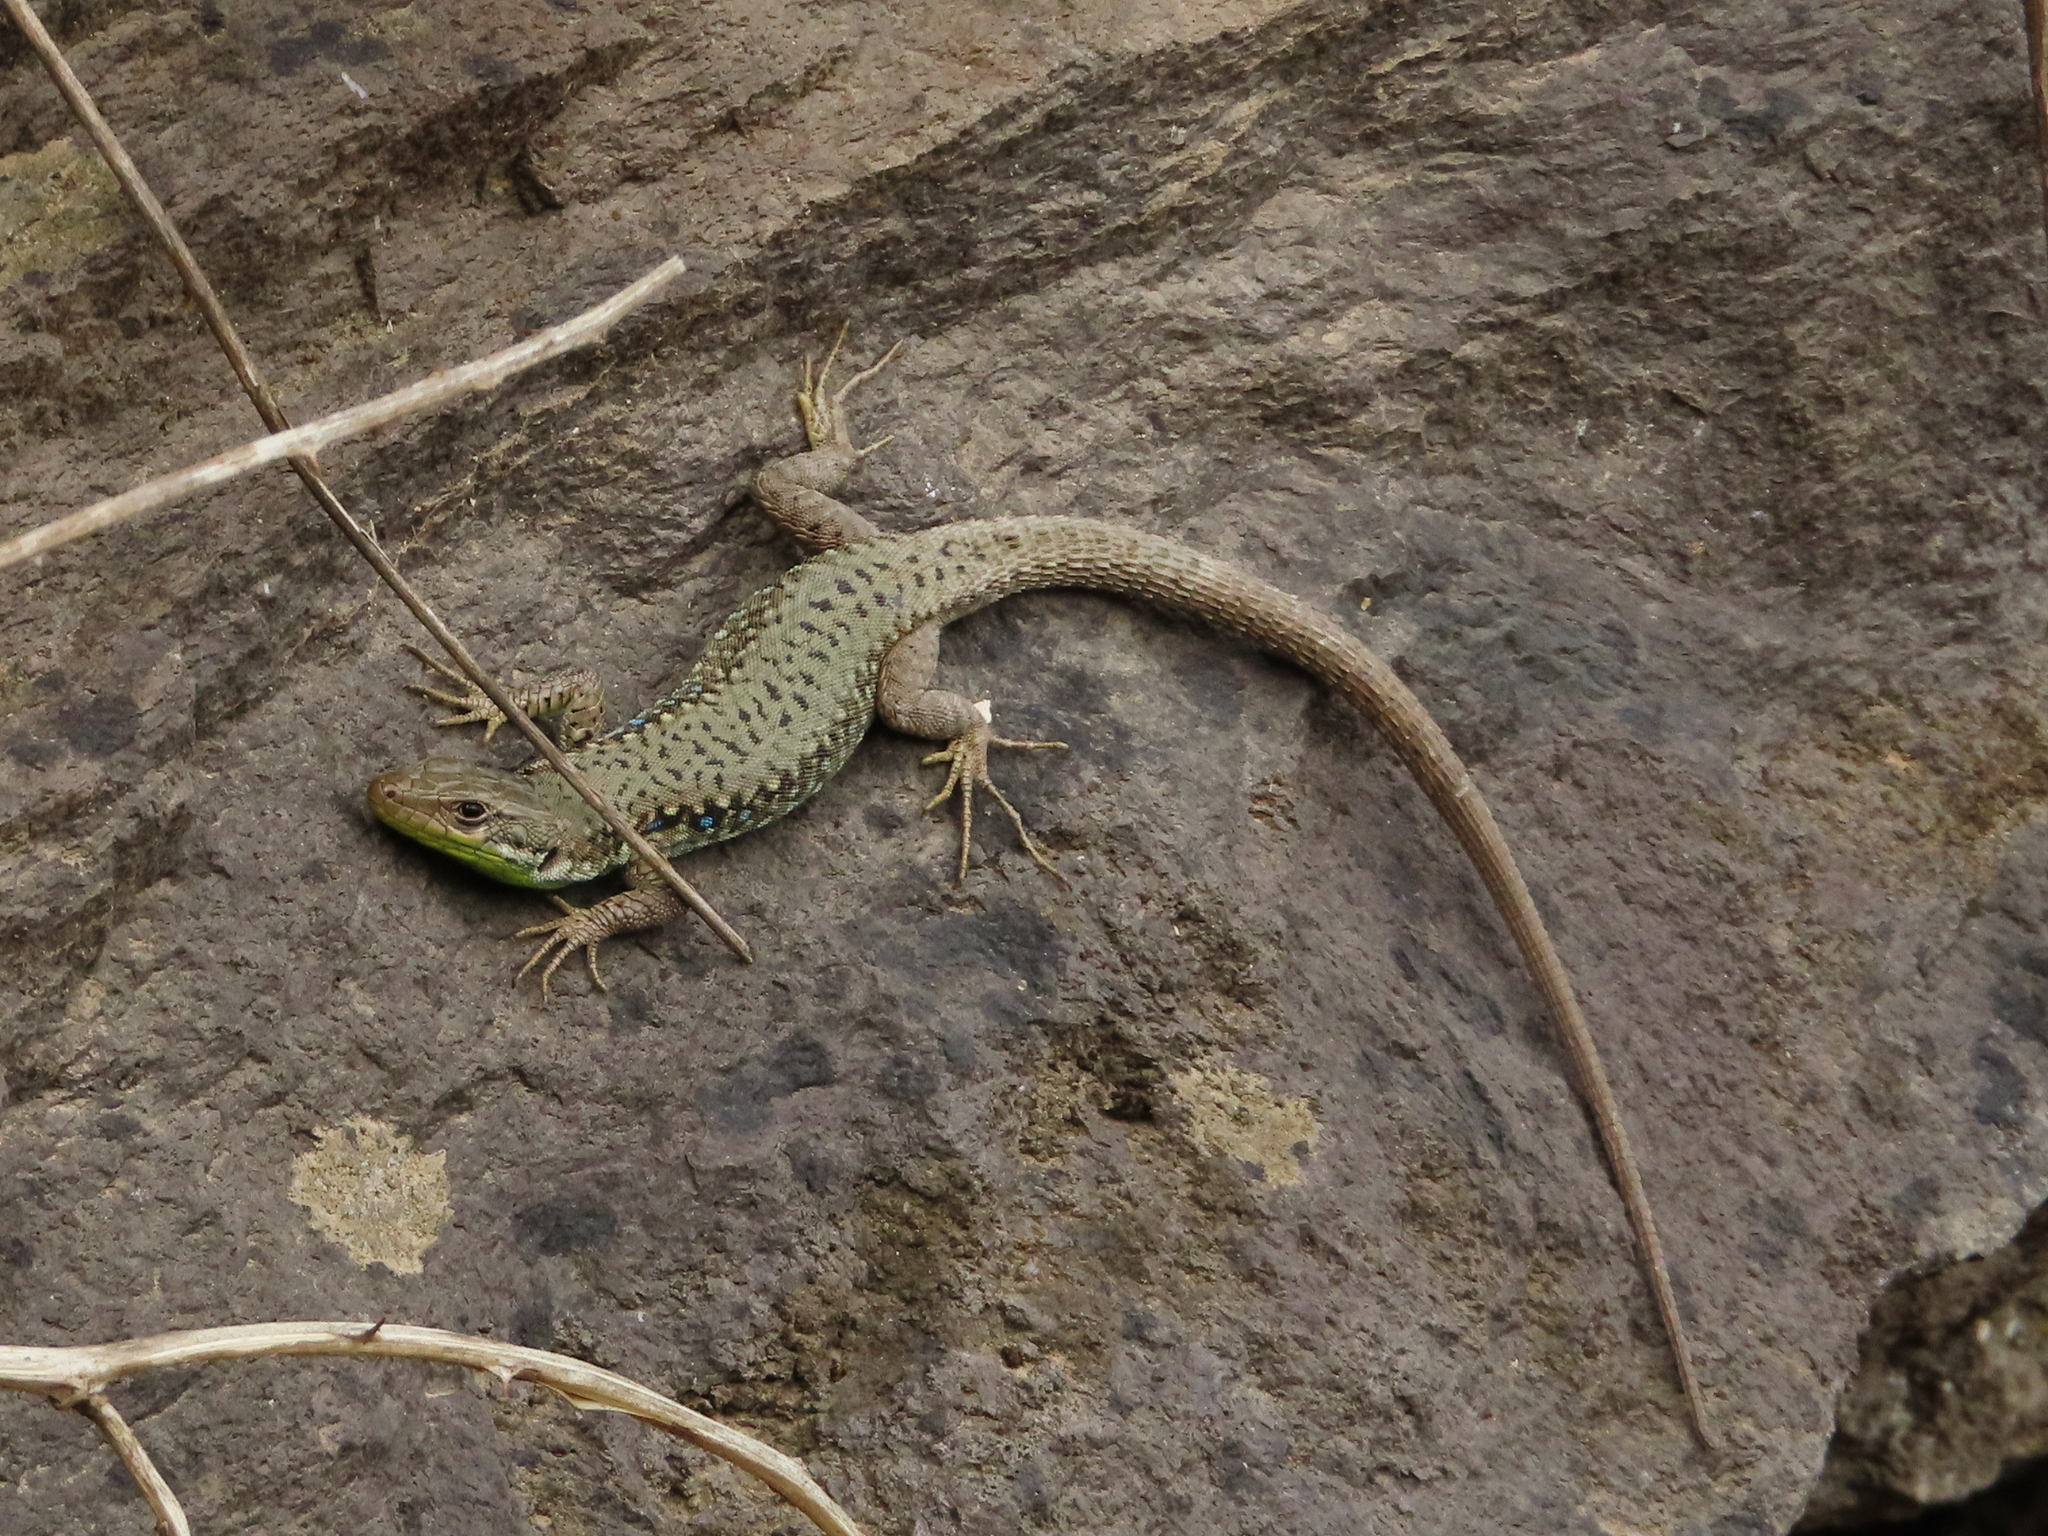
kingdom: Animalia
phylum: Chordata
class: Squamata
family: Lacertidae
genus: Darevskia
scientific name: Darevskia raddei
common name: Radde's lizard
